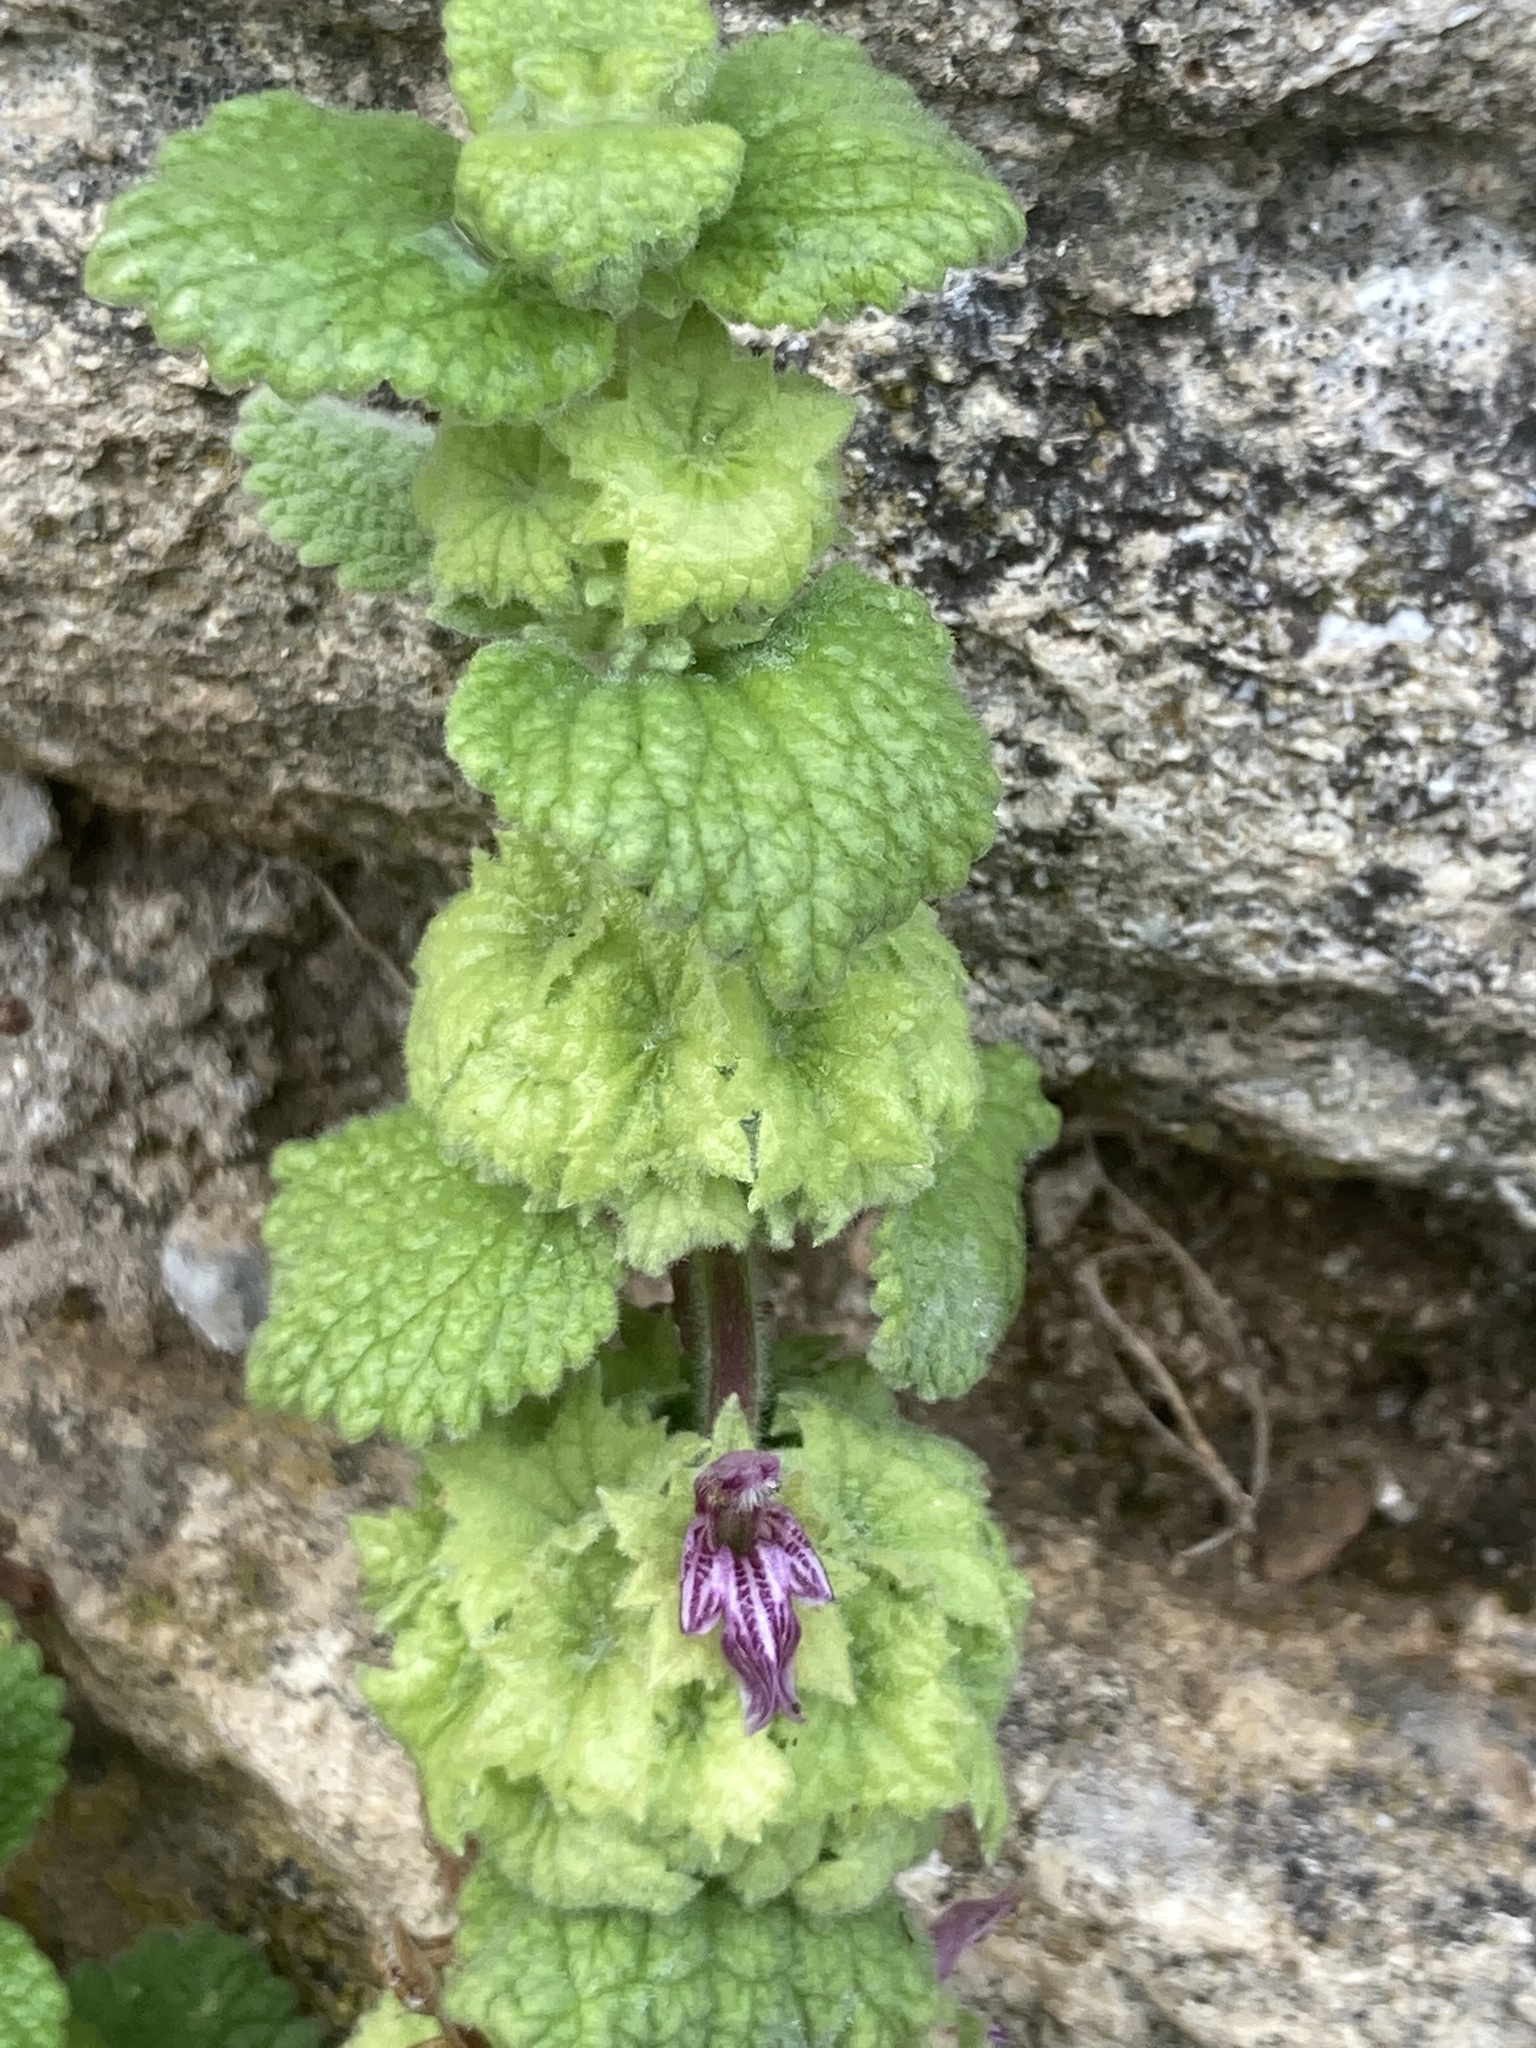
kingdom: Plantae
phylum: Tracheophyta
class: Magnoliopsida
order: Lamiales
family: Lamiaceae
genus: Pseudodictamnus
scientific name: Pseudodictamnus hirsutus
